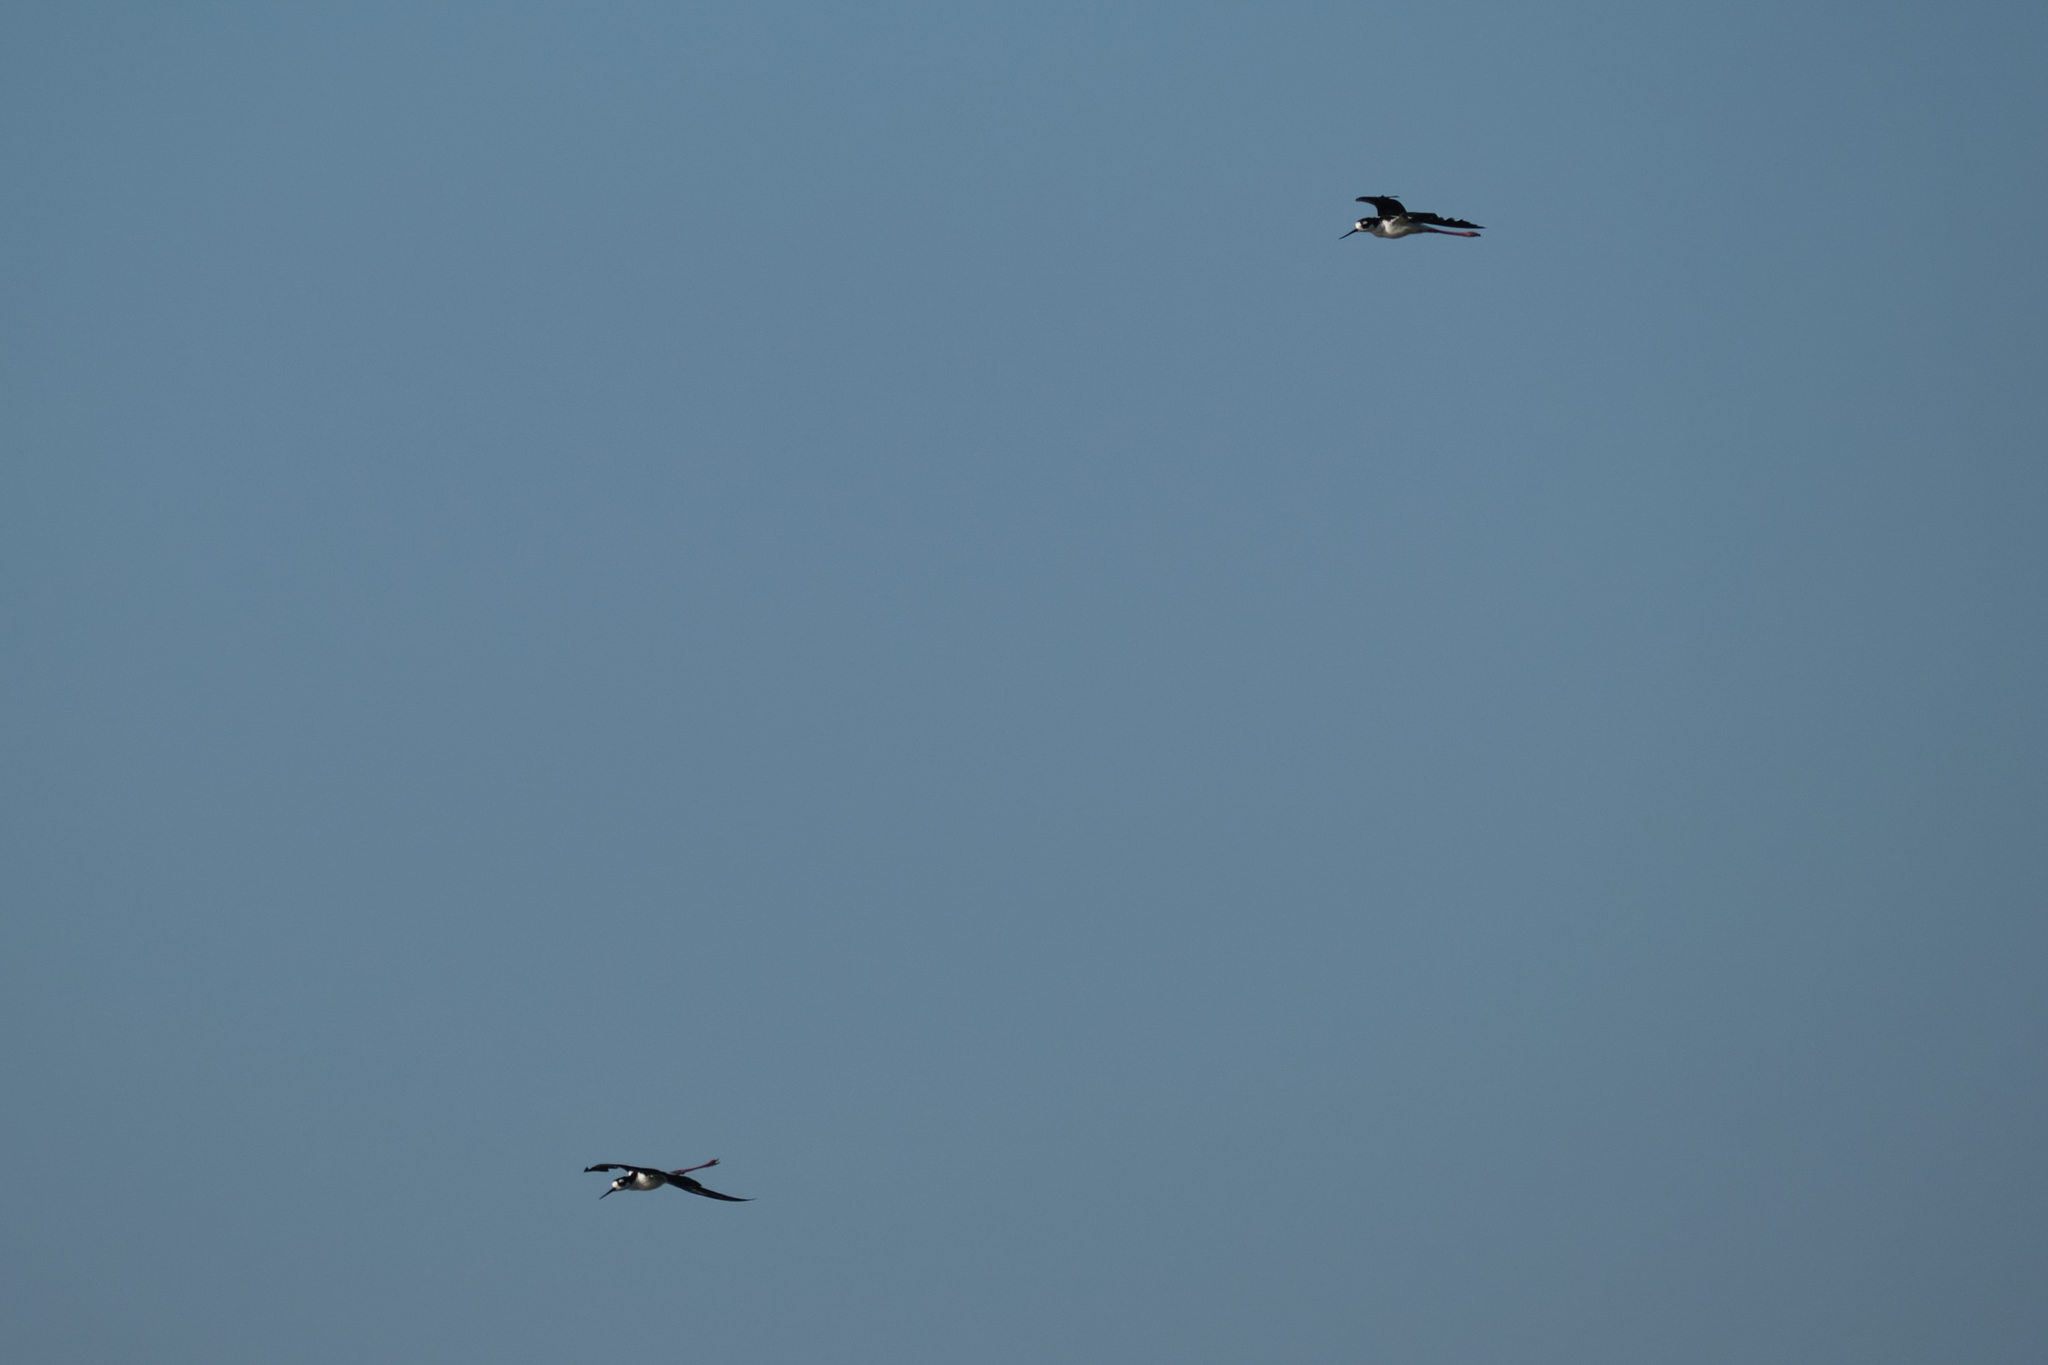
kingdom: Animalia
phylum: Chordata
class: Aves
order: Charadriiformes
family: Recurvirostridae
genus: Himantopus
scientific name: Himantopus mexicanus
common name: Black-necked stilt
